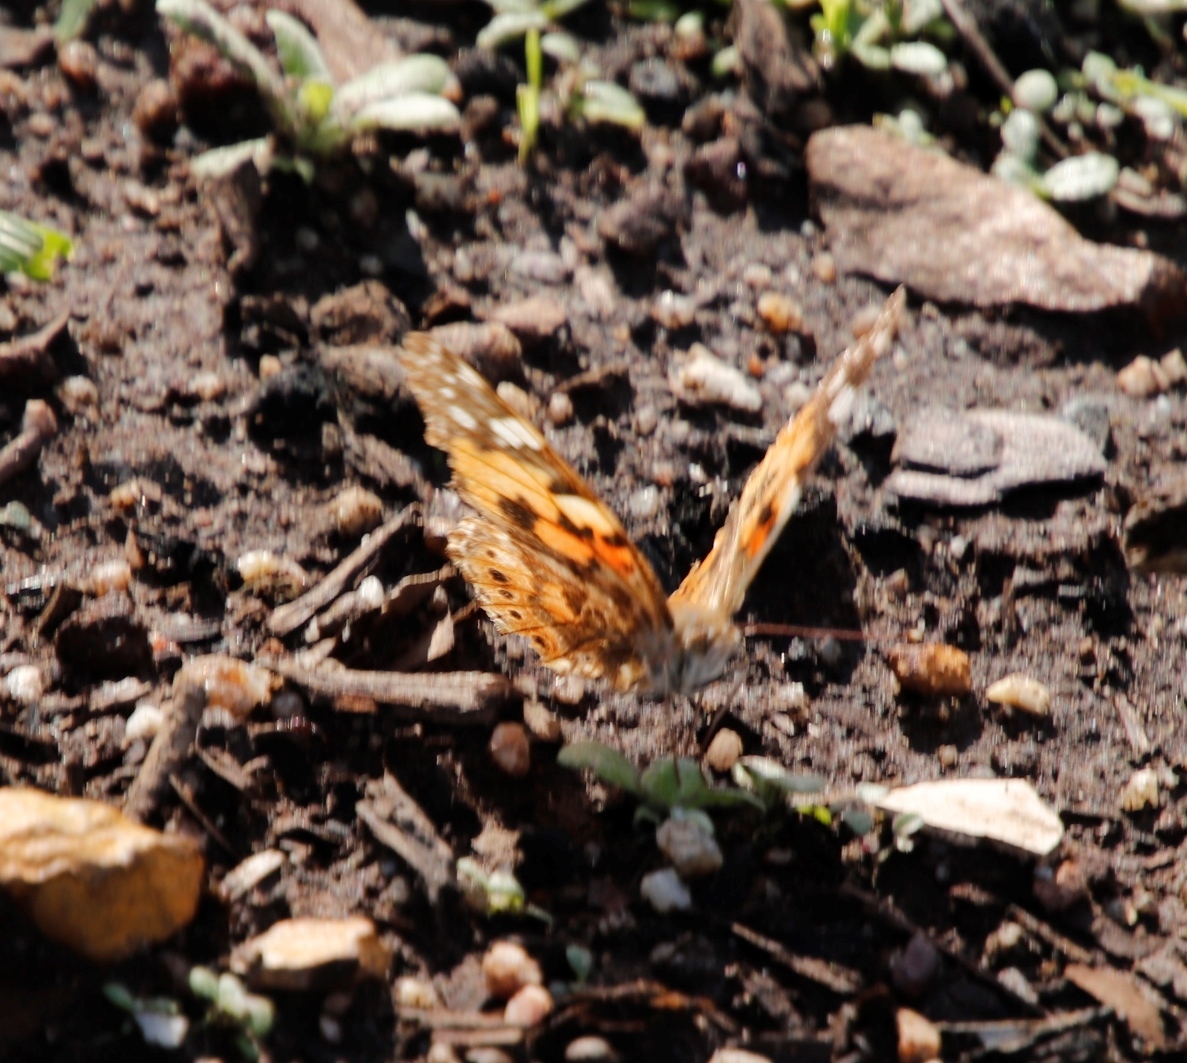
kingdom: Animalia
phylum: Arthropoda
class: Insecta
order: Lepidoptera
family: Nymphalidae
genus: Vanessa
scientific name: Vanessa cardui
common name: Painted lady
